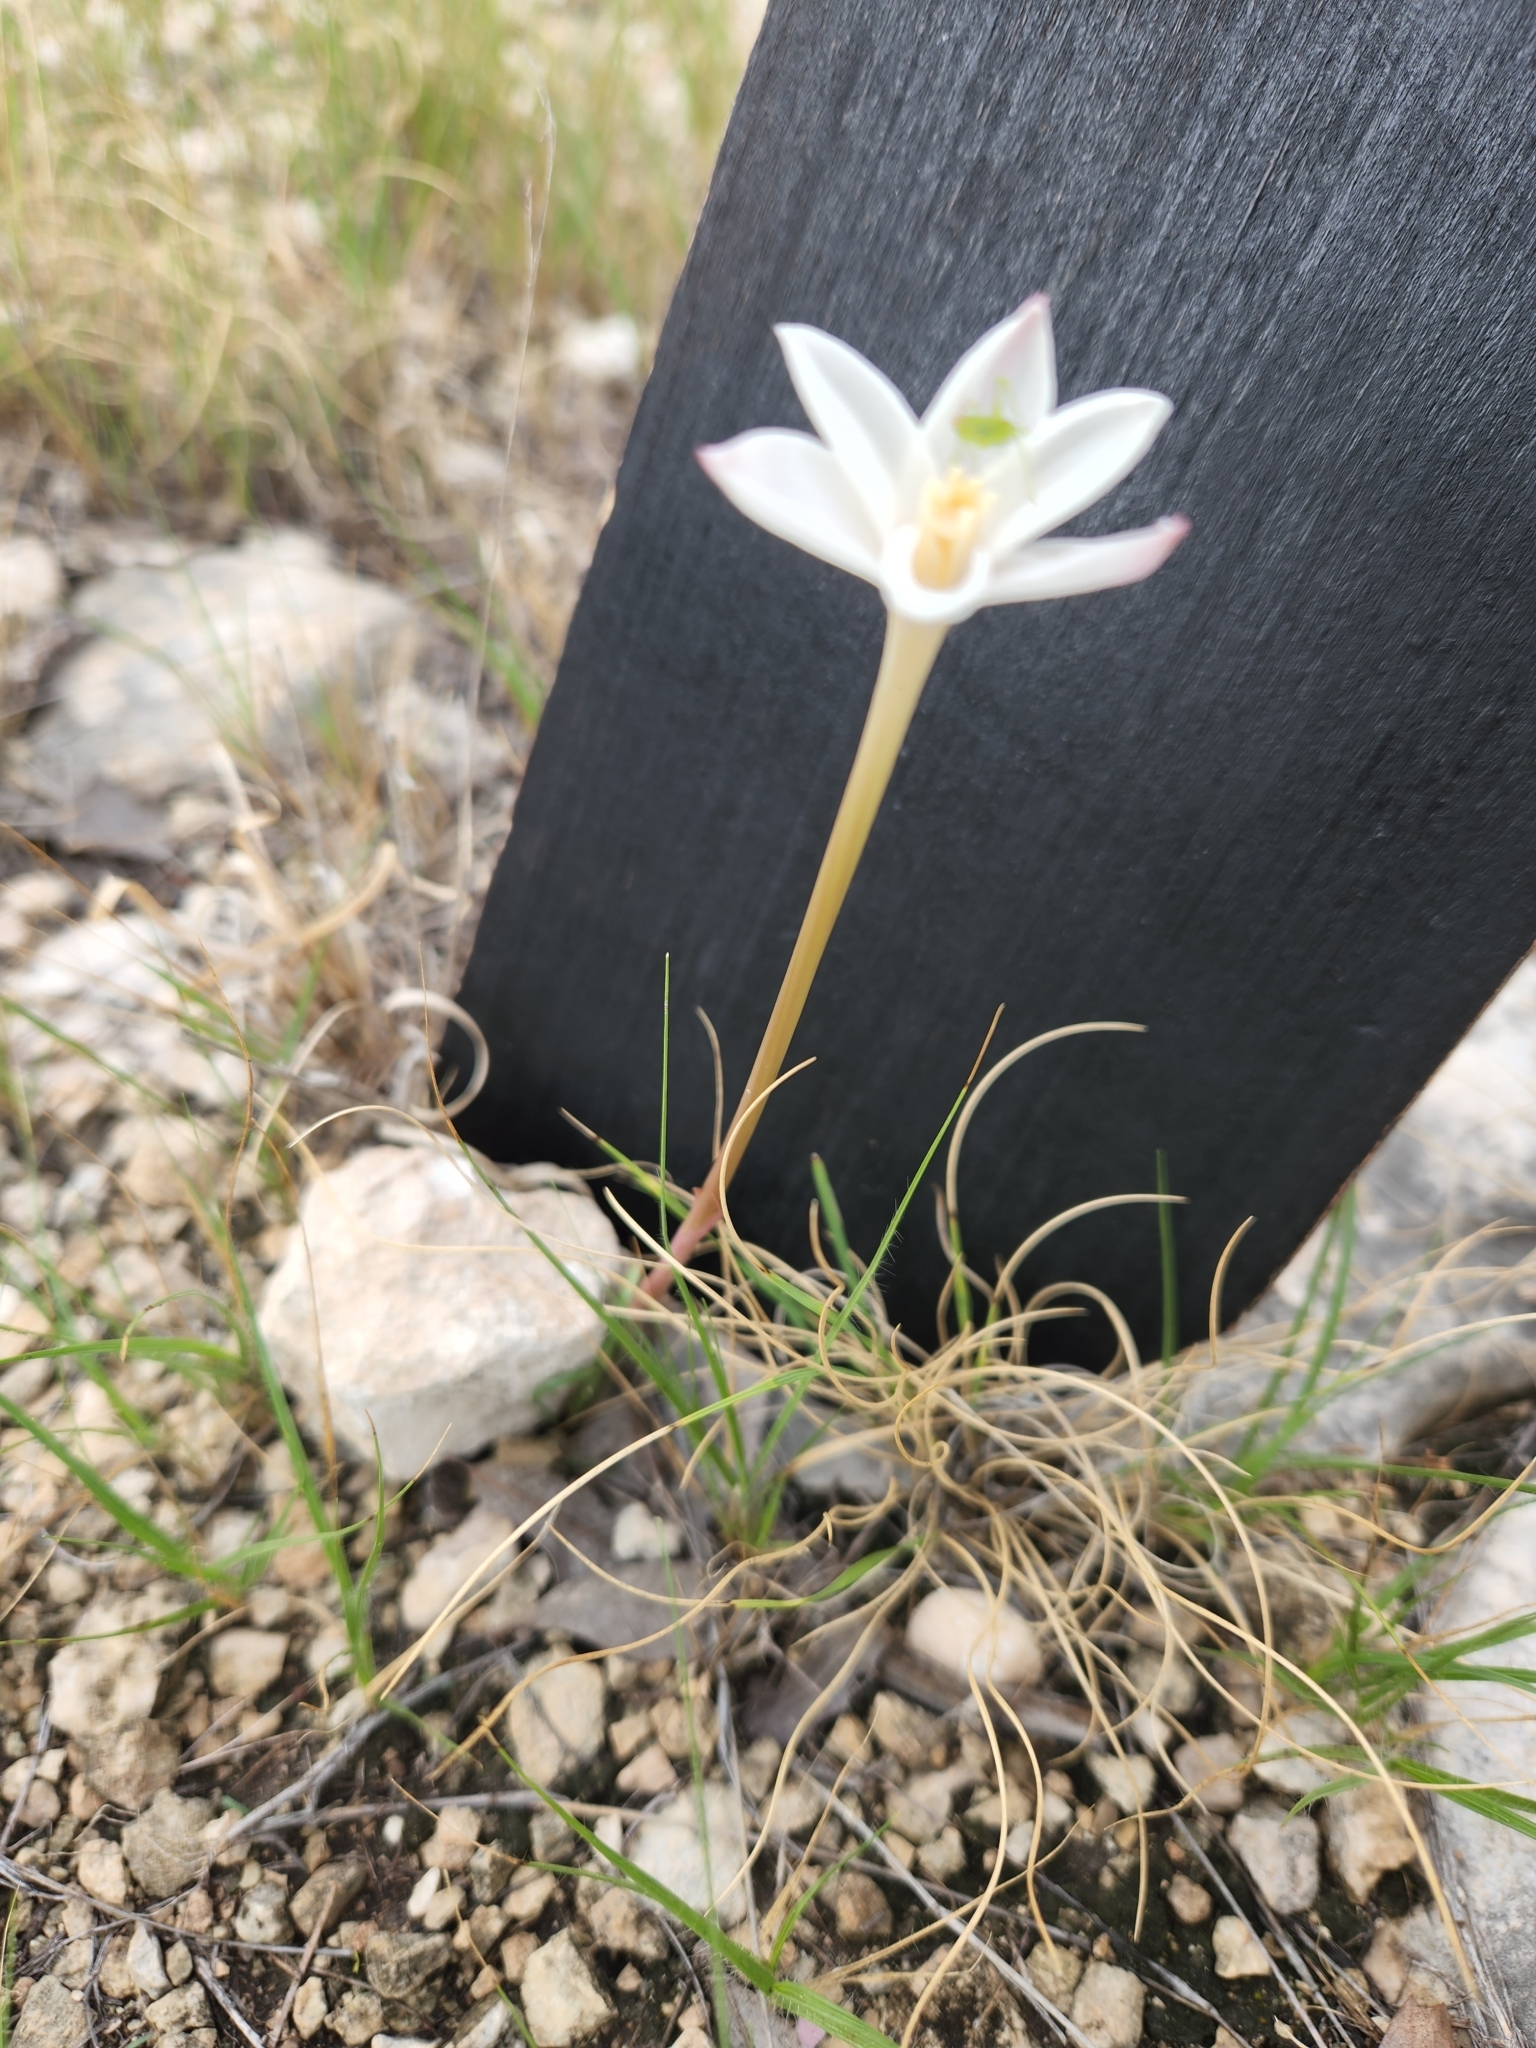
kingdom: Plantae
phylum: Tracheophyta
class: Liliopsida
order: Asparagales
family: Amaryllidaceae
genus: Zephyranthes
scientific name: Zephyranthes chlorosolen
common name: Evening rain-lily
